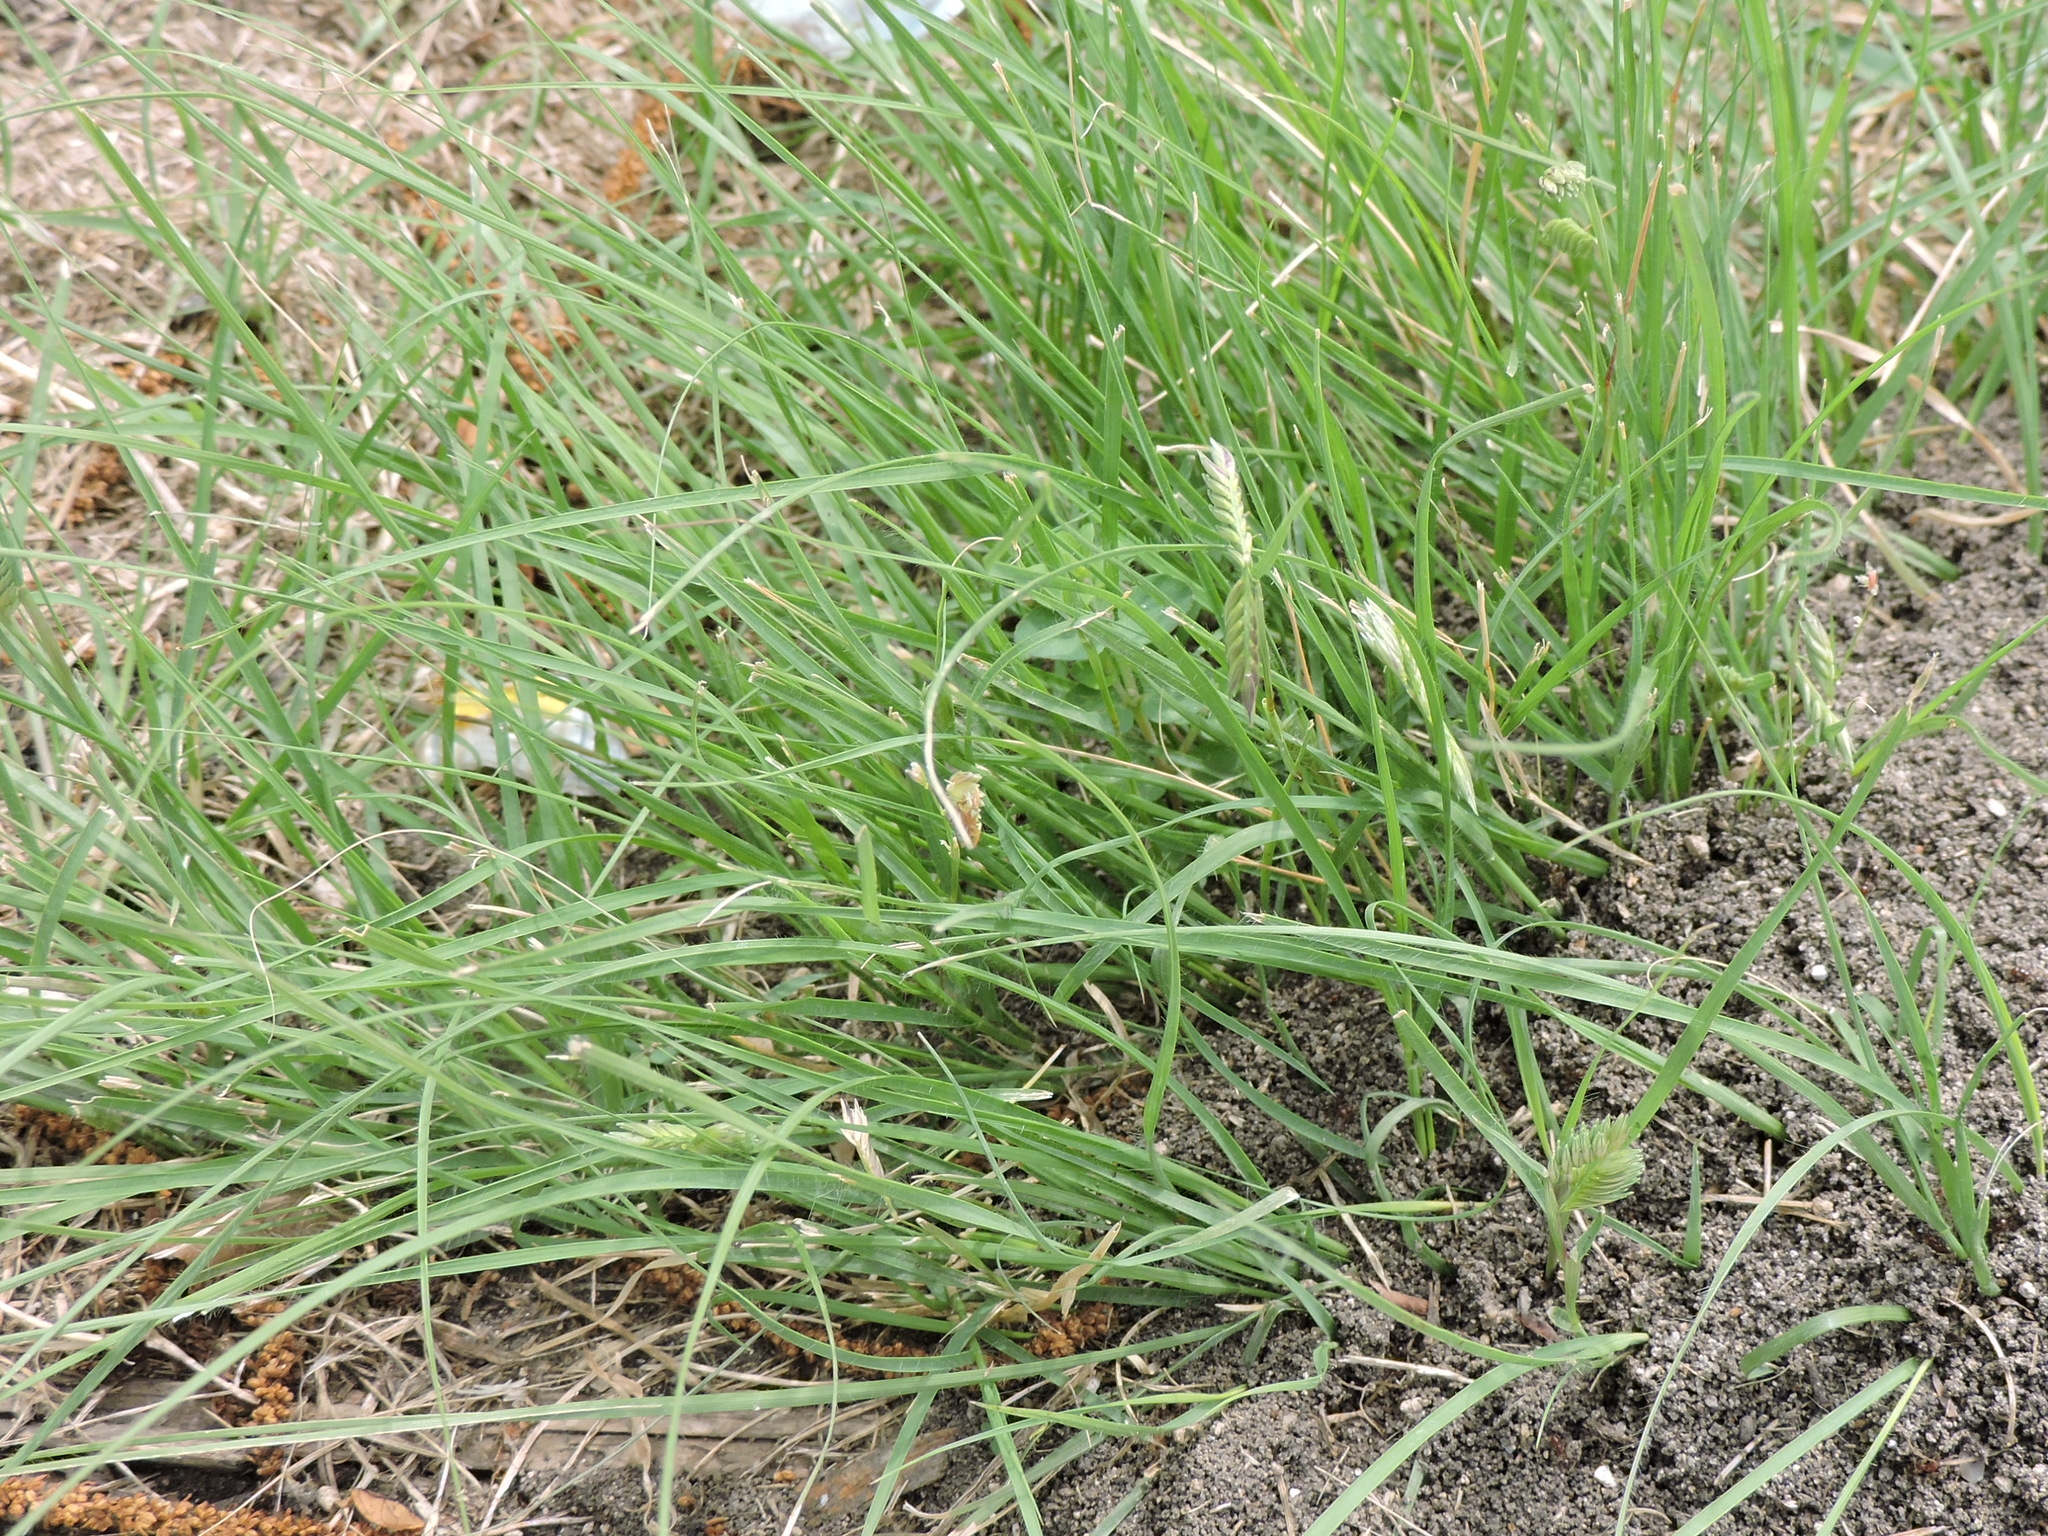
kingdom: Plantae
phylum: Tracheophyta
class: Liliopsida
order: Poales
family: Poaceae
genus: Bouteloua
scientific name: Bouteloua dactyloides
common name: Buffalo grass
